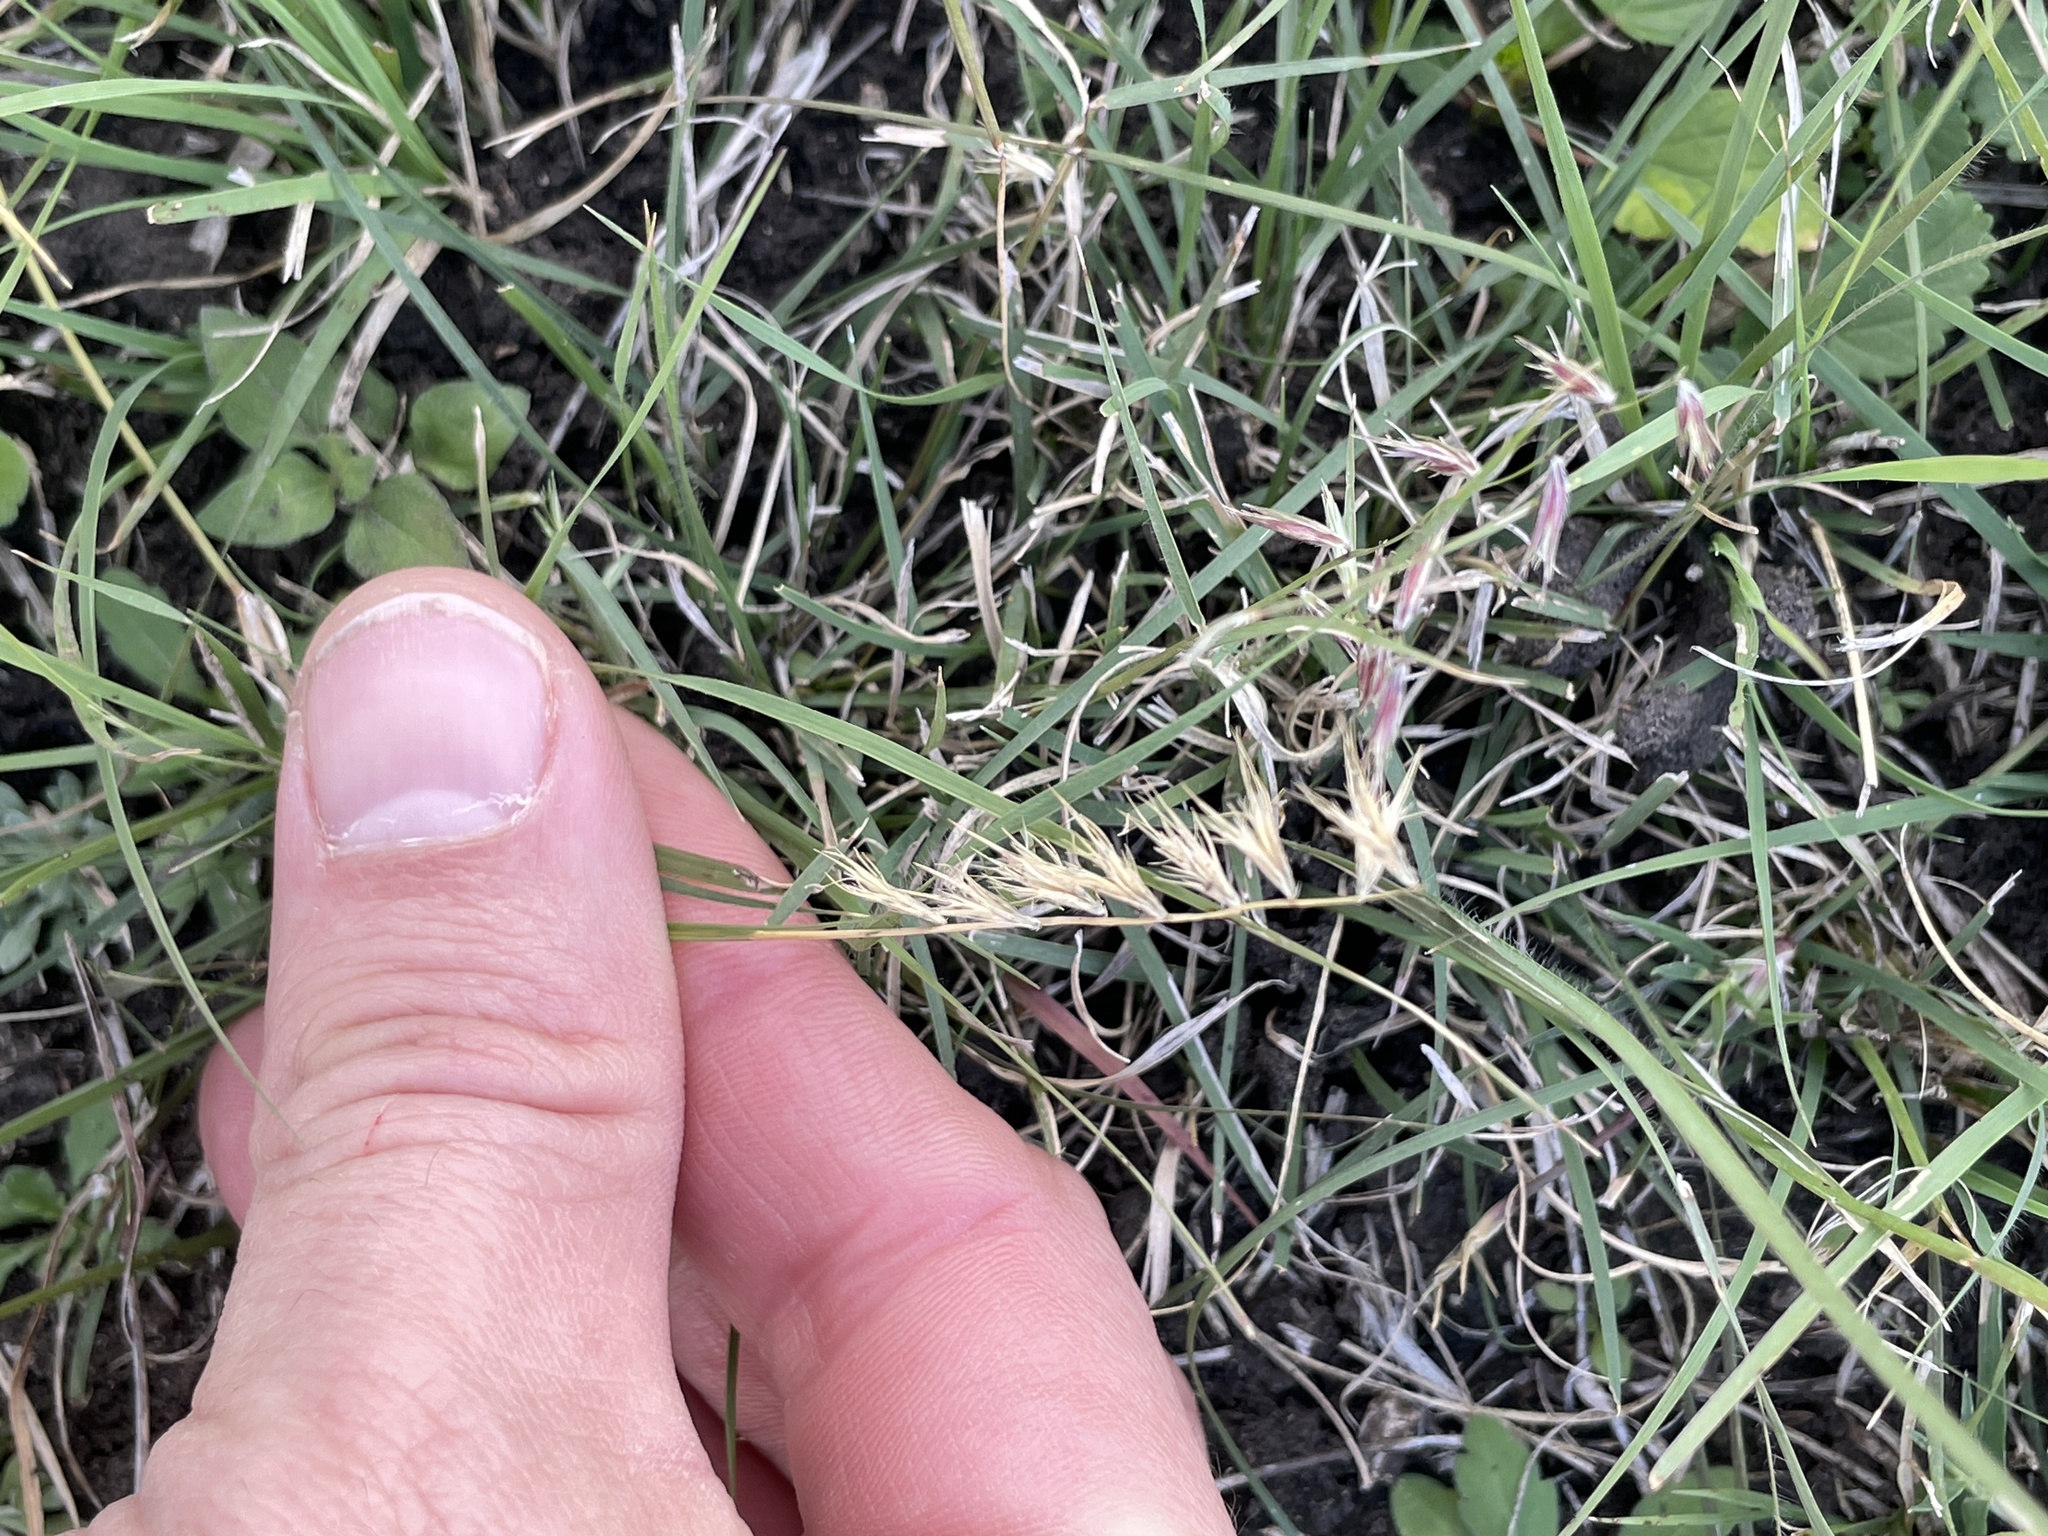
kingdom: Plantae
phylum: Tracheophyta
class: Liliopsida
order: Poales
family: Poaceae
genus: Bouteloua
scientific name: Bouteloua rigidiseta
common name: Texas grama
